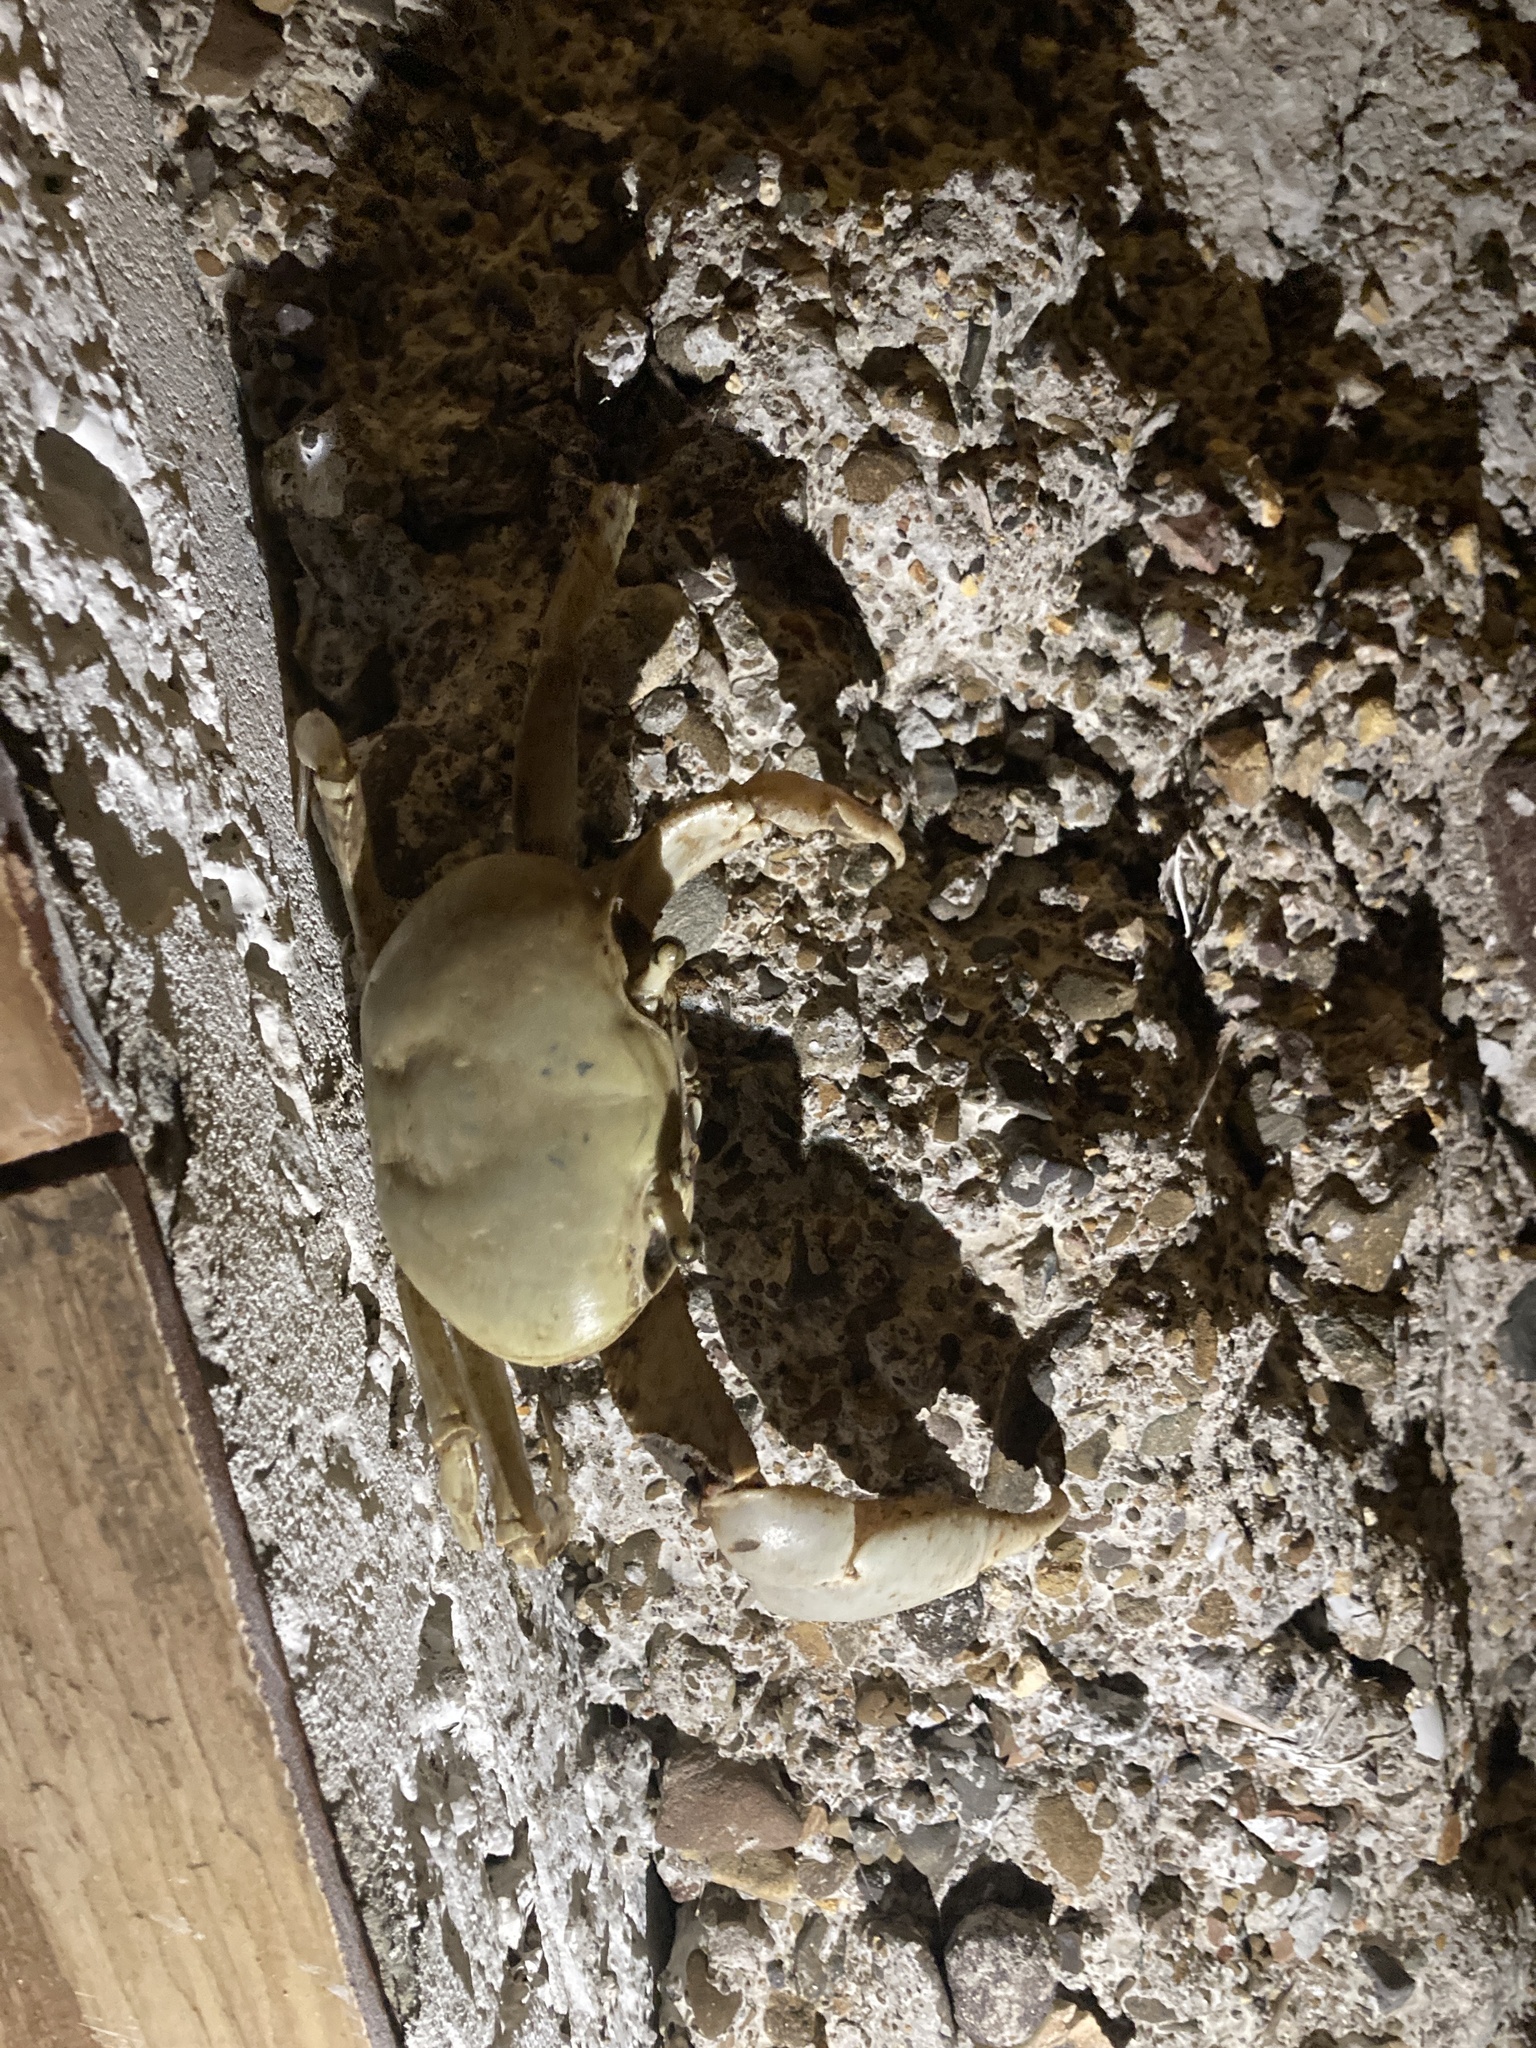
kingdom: Animalia
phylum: Arthropoda
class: Malacostraca
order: Decapoda
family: Gecarcinidae
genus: Cardisoma
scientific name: Cardisoma guanhumi
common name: Great land crab
